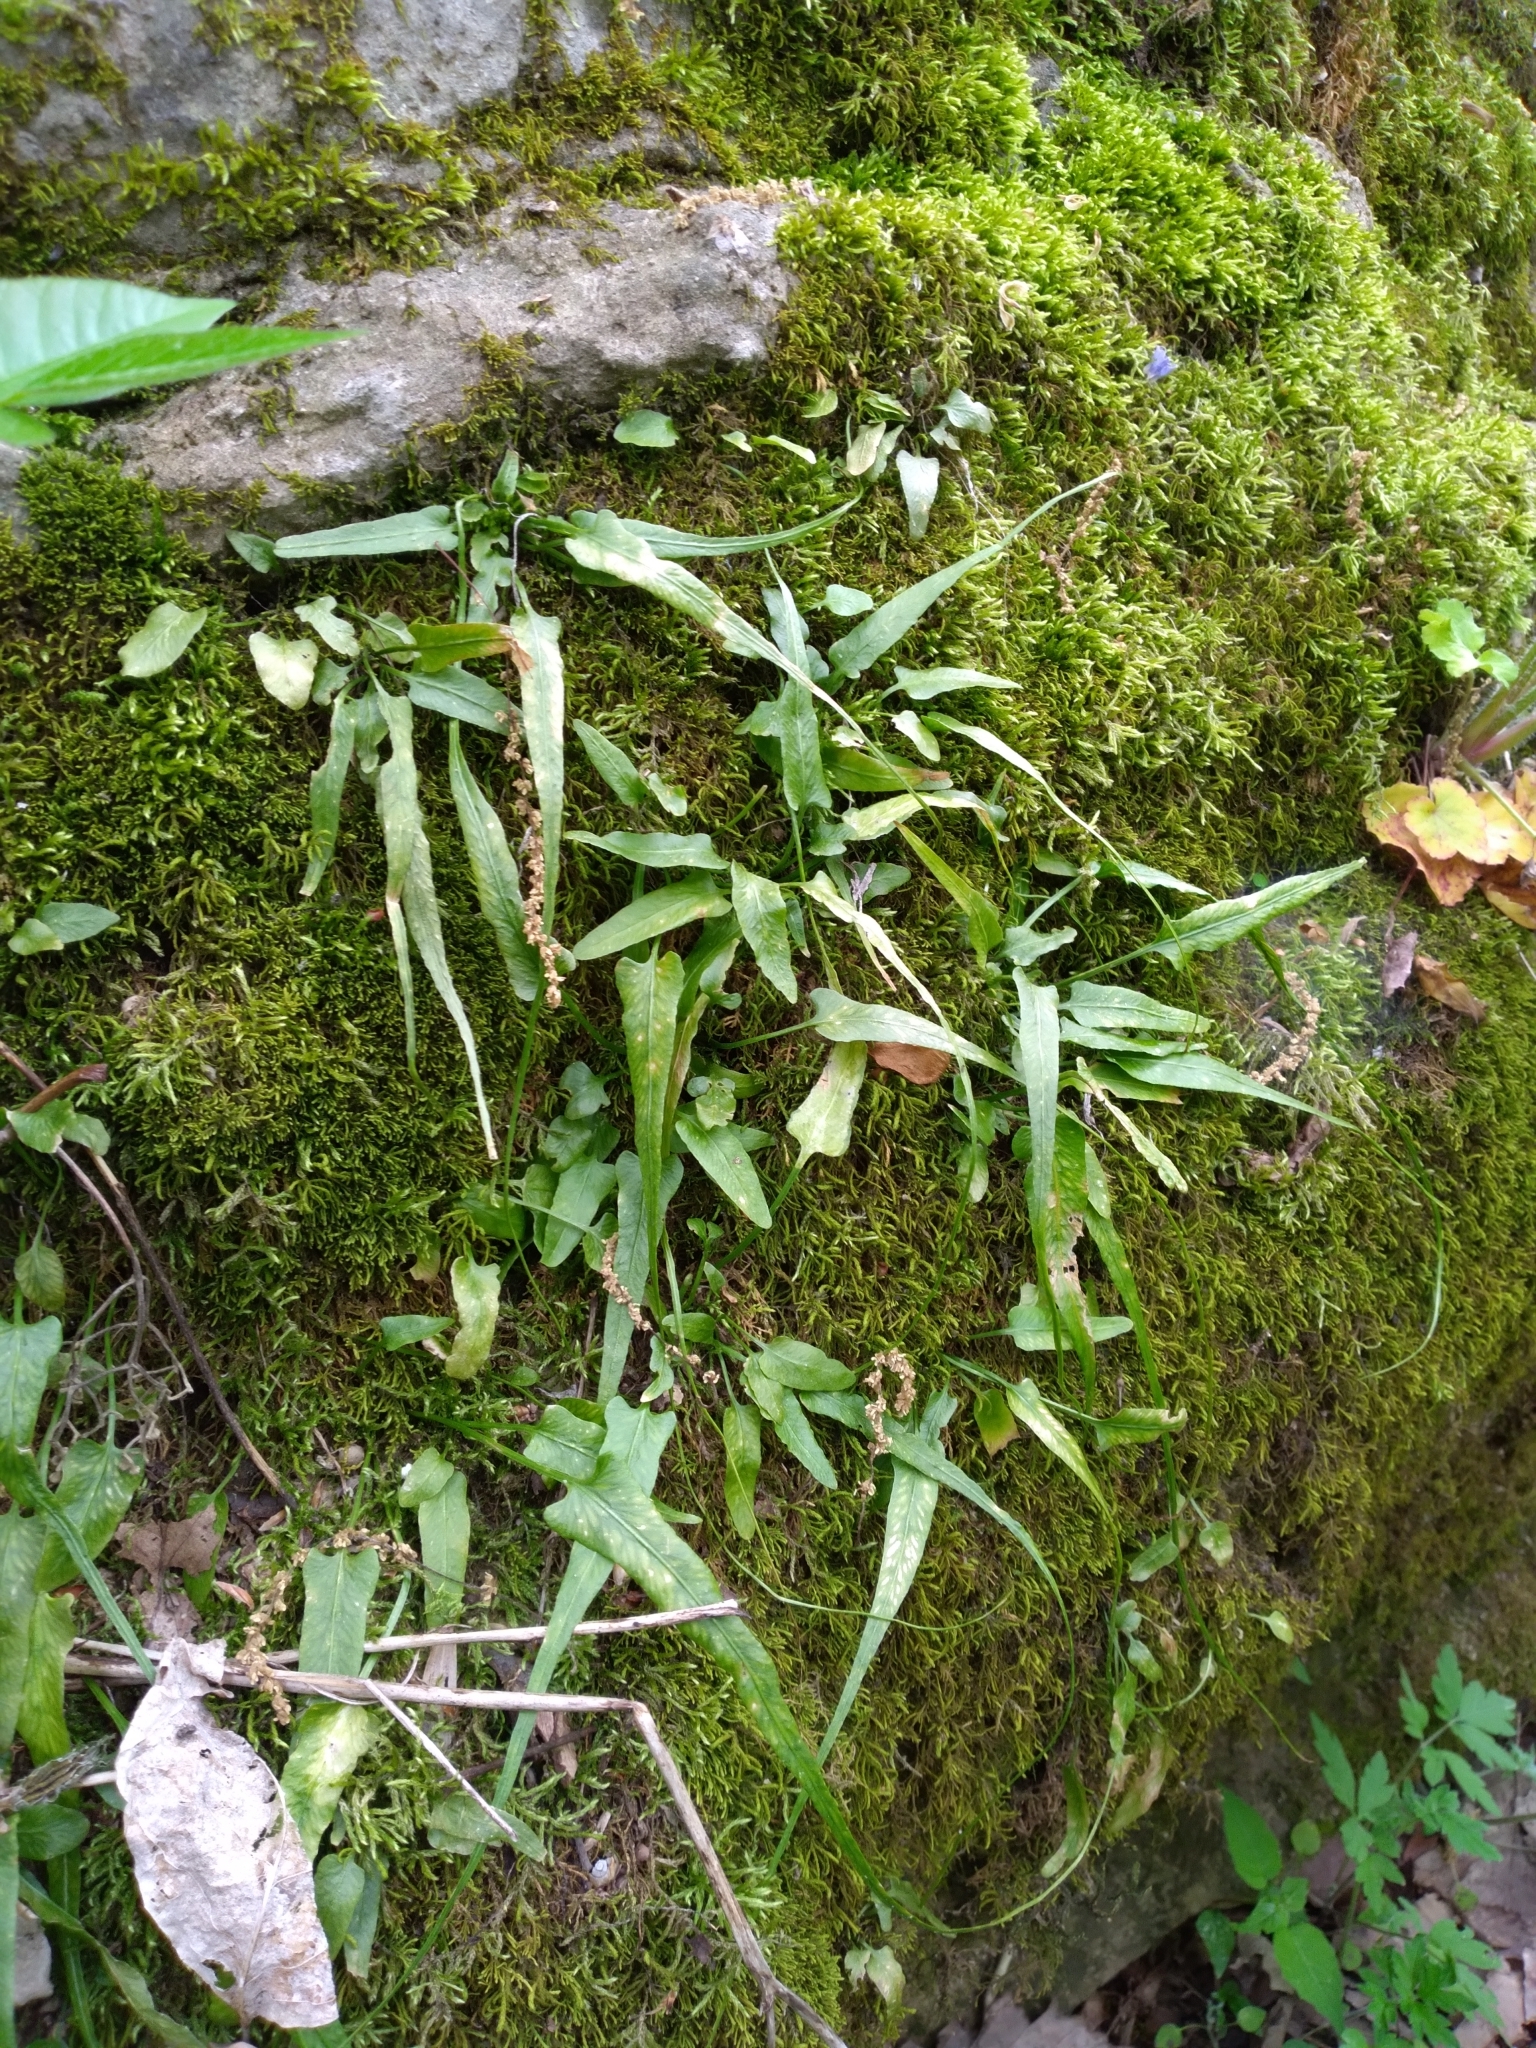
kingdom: Plantae
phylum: Tracheophyta
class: Polypodiopsida
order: Polypodiales
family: Aspleniaceae
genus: Asplenium
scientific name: Asplenium rhizophyllum
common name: Walking fern
